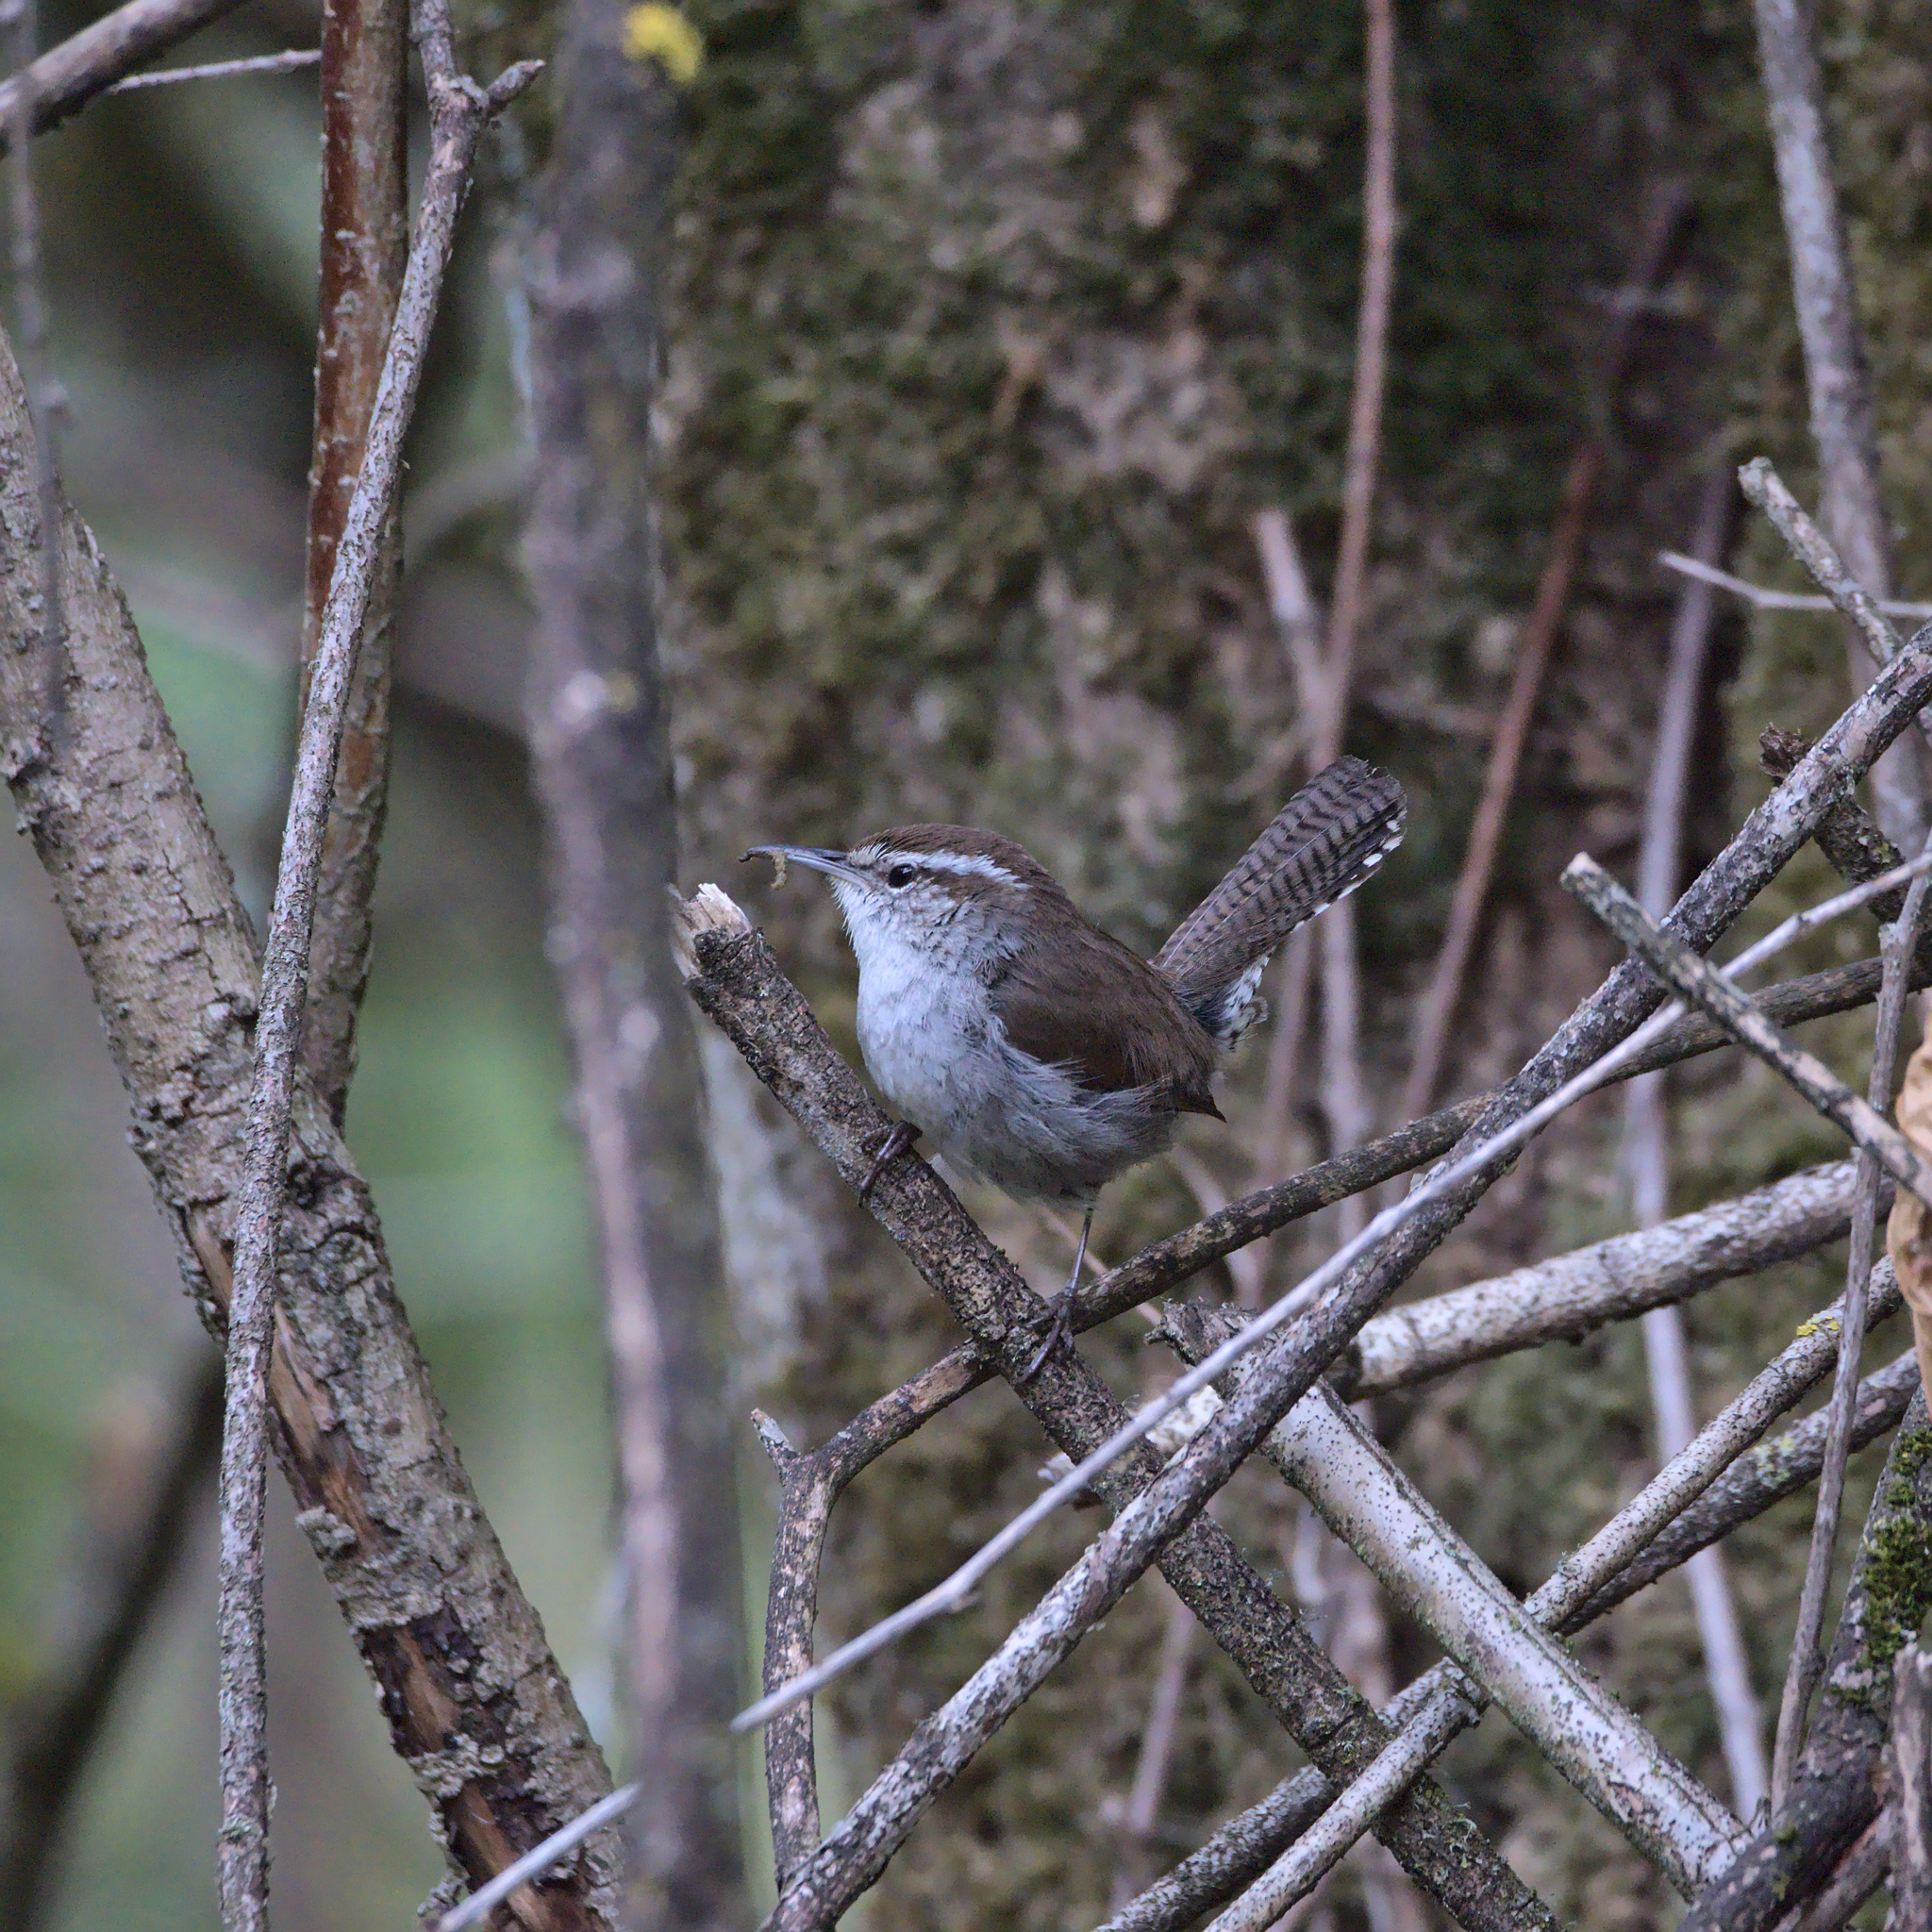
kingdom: Animalia
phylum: Chordata
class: Aves
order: Passeriformes
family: Troglodytidae
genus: Thryomanes
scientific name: Thryomanes bewickii
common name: Bewick's wren
